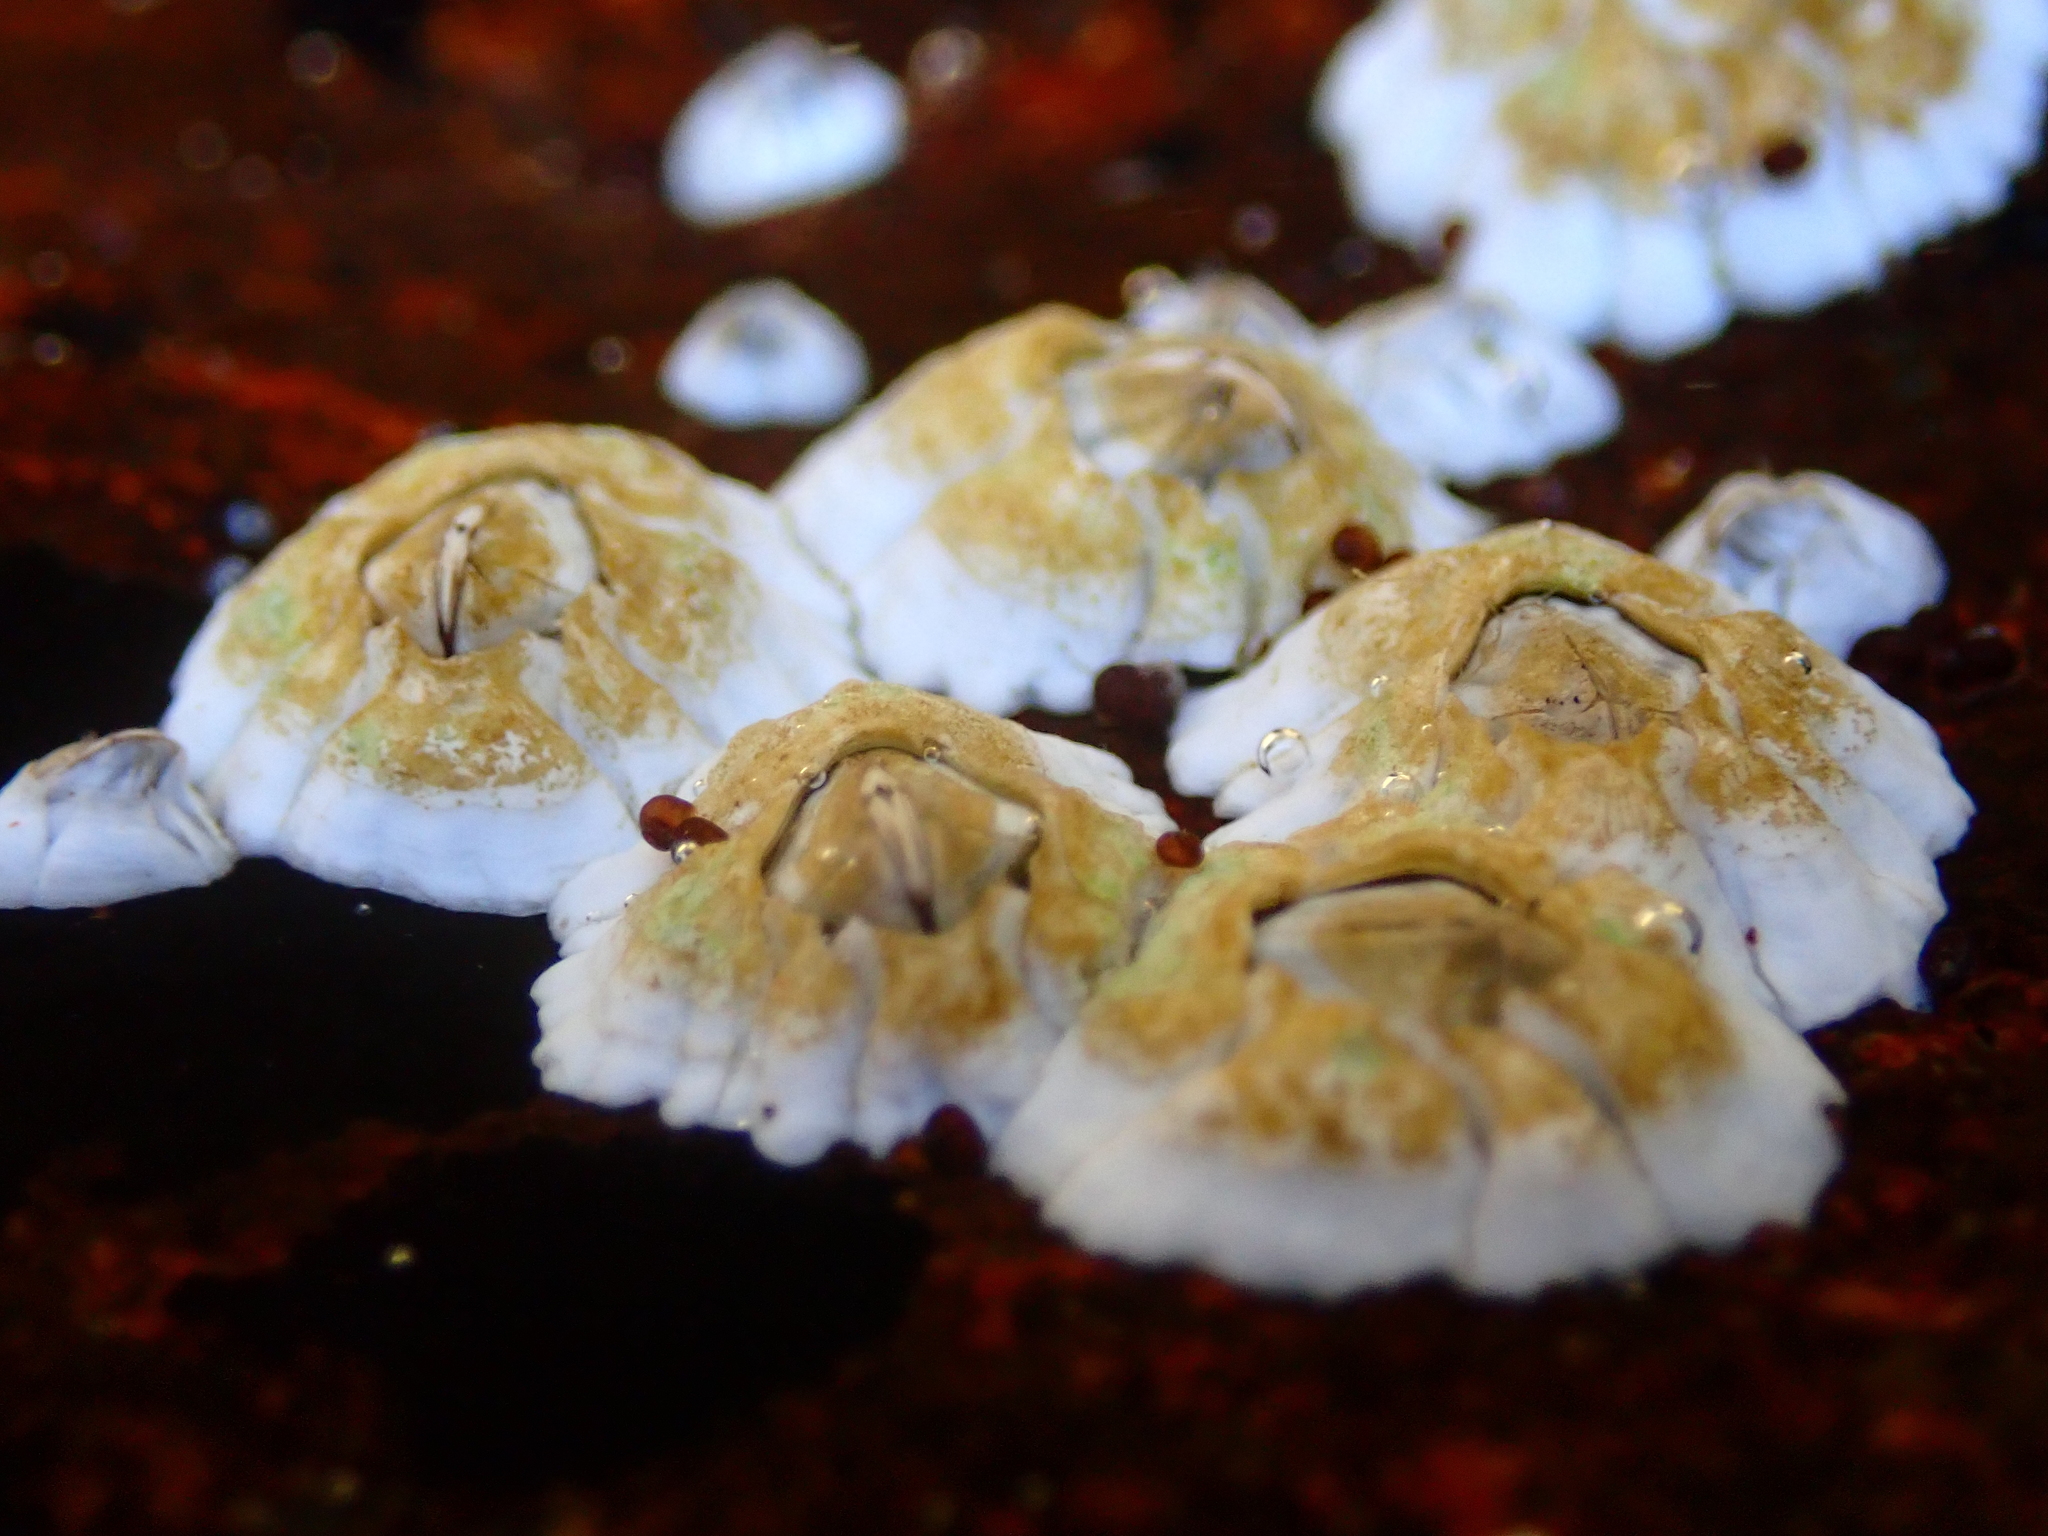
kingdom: Animalia
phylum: Arthropoda
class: Maxillopoda
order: Sessilia
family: Archaeobalanidae
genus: Semibalanus
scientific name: Semibalanus balanoides
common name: Acorn barnacle
